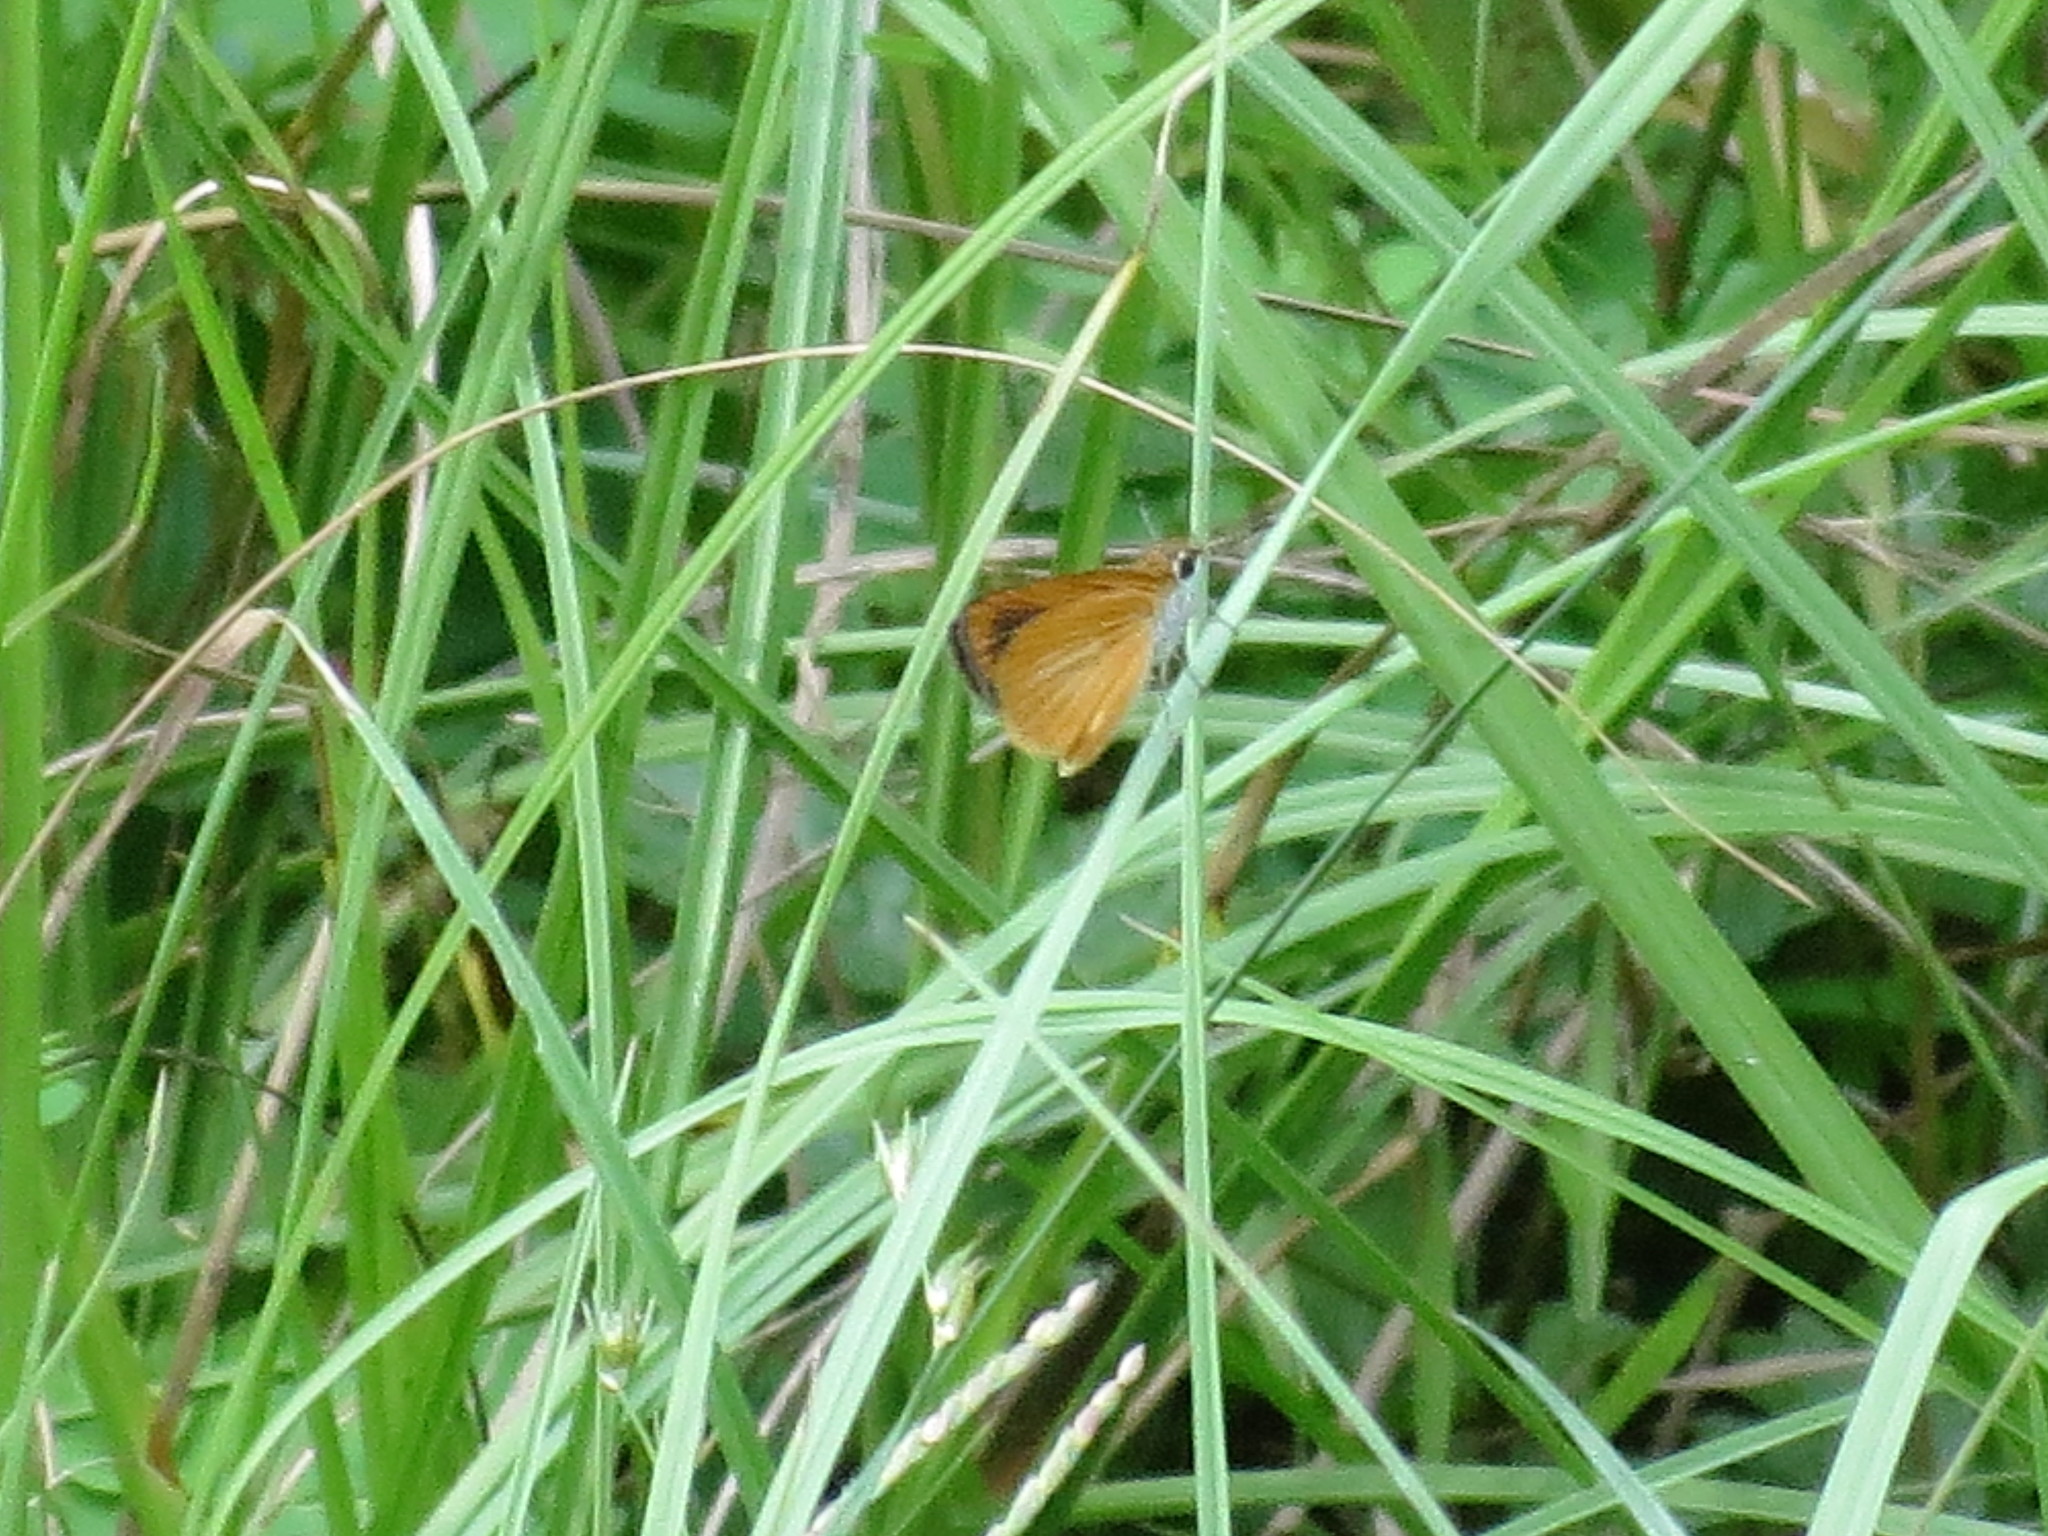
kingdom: Animalia
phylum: Arthropoda
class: Insecta
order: Lepidoptera
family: Hesperiidae
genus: Ancyloxypha
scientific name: Ancyloxypha numitor
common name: Least skipper
